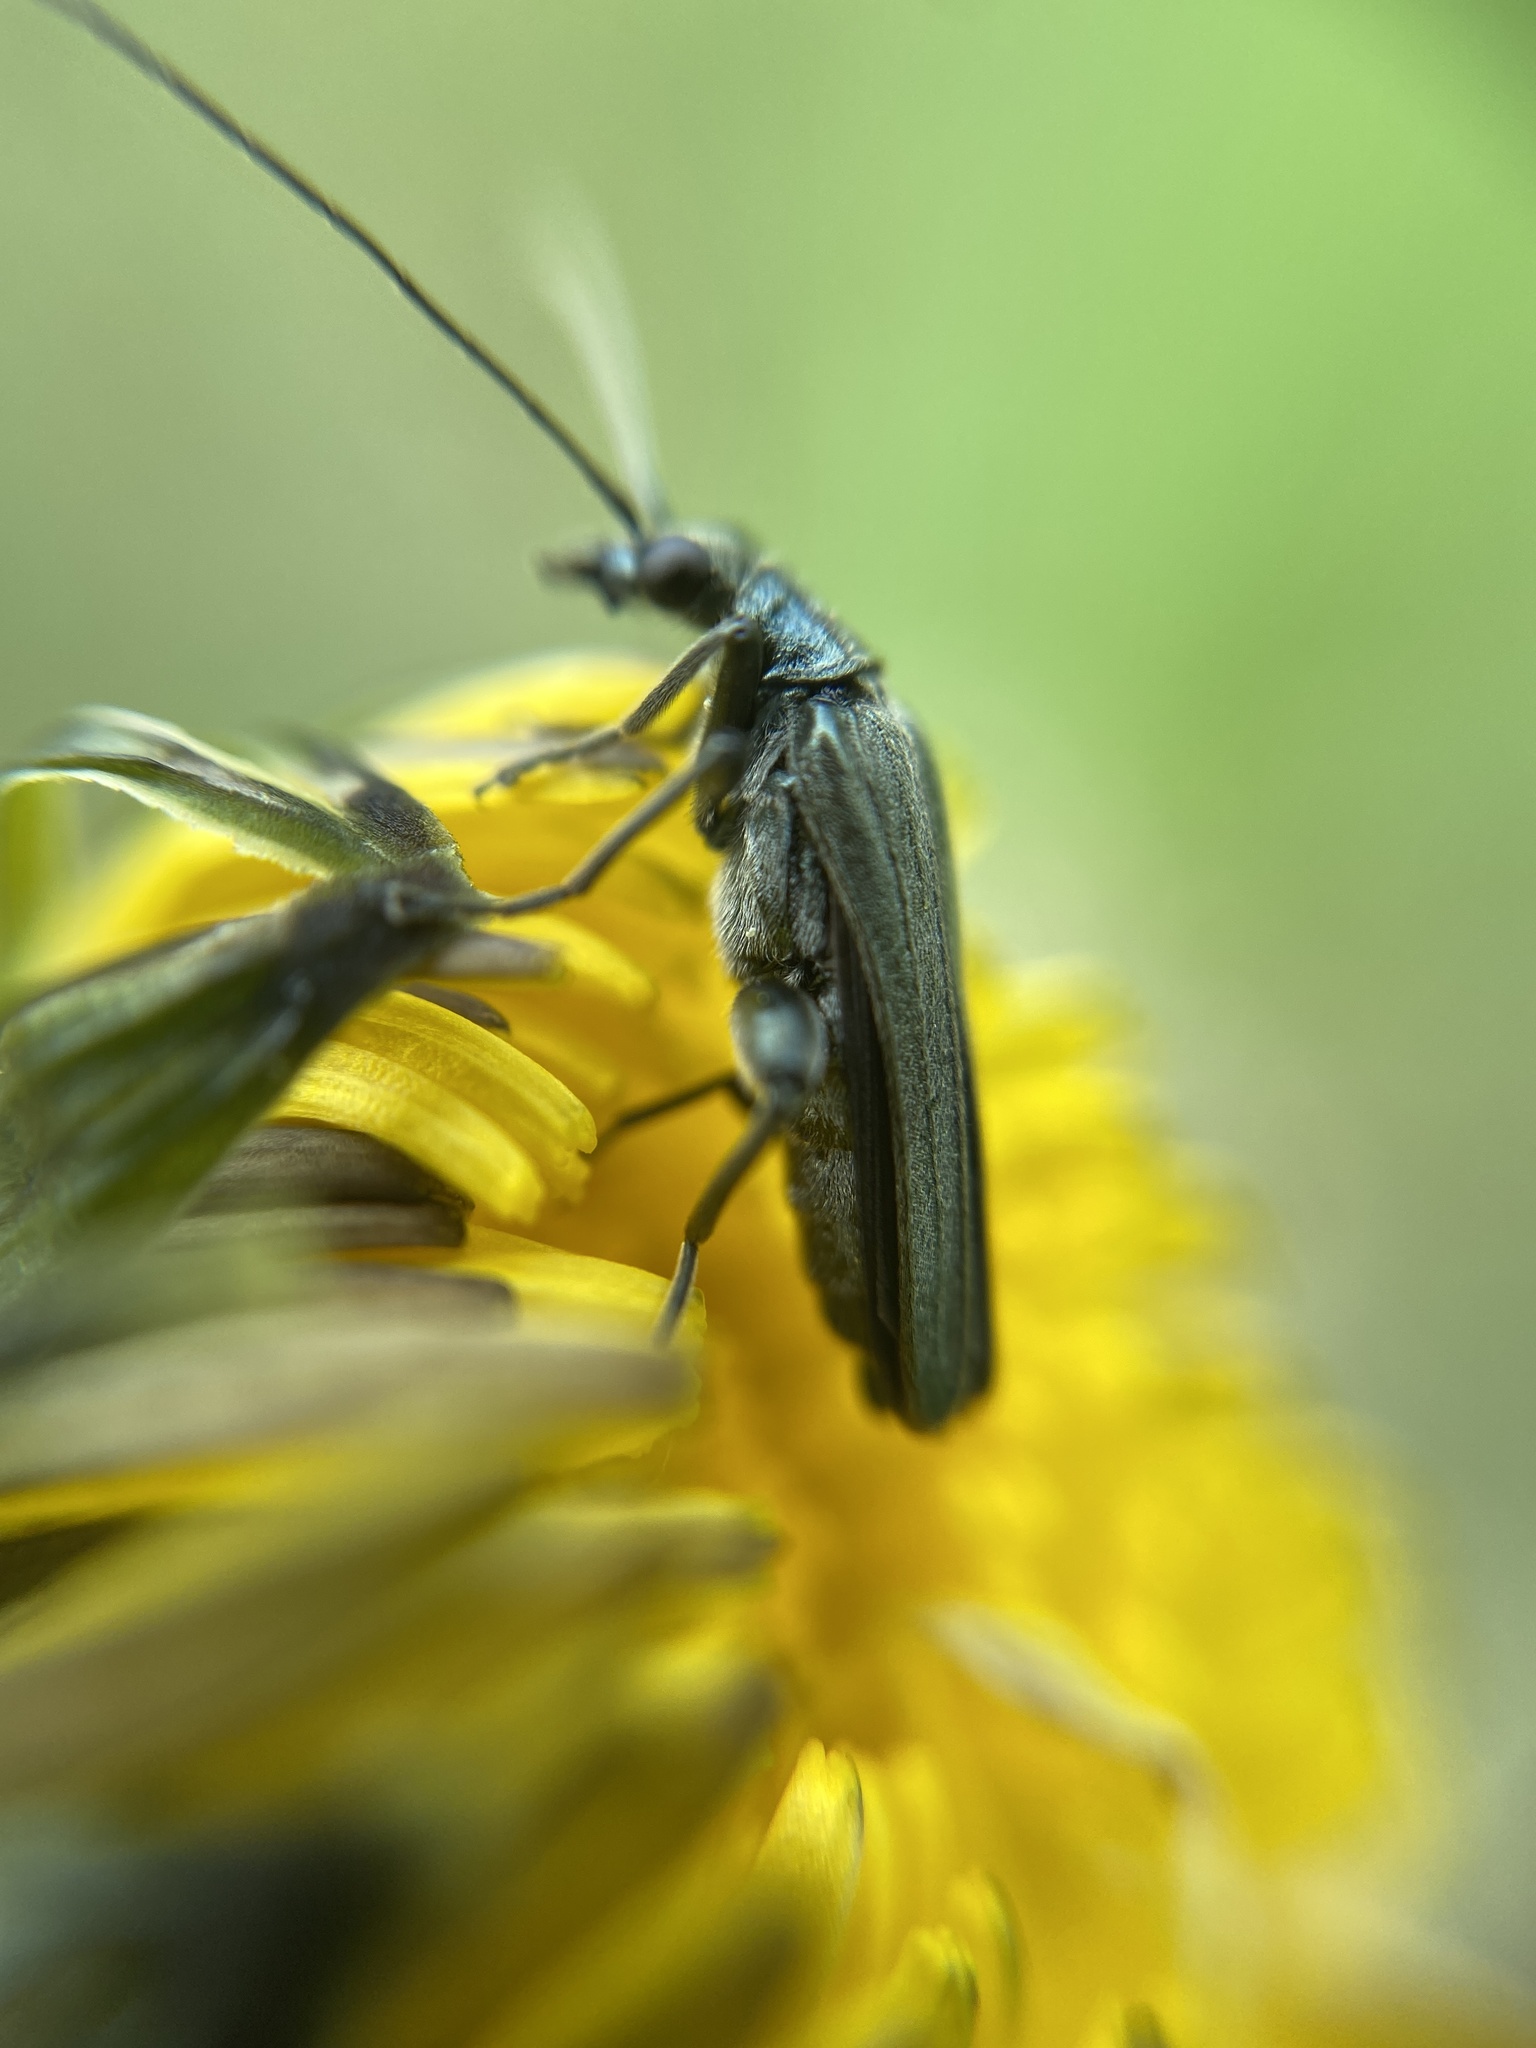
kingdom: Animalia
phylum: Arthropoda
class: Insecta
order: Coleoptera
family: Oedemeridae
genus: Oedemera
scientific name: Oedemera virescens
